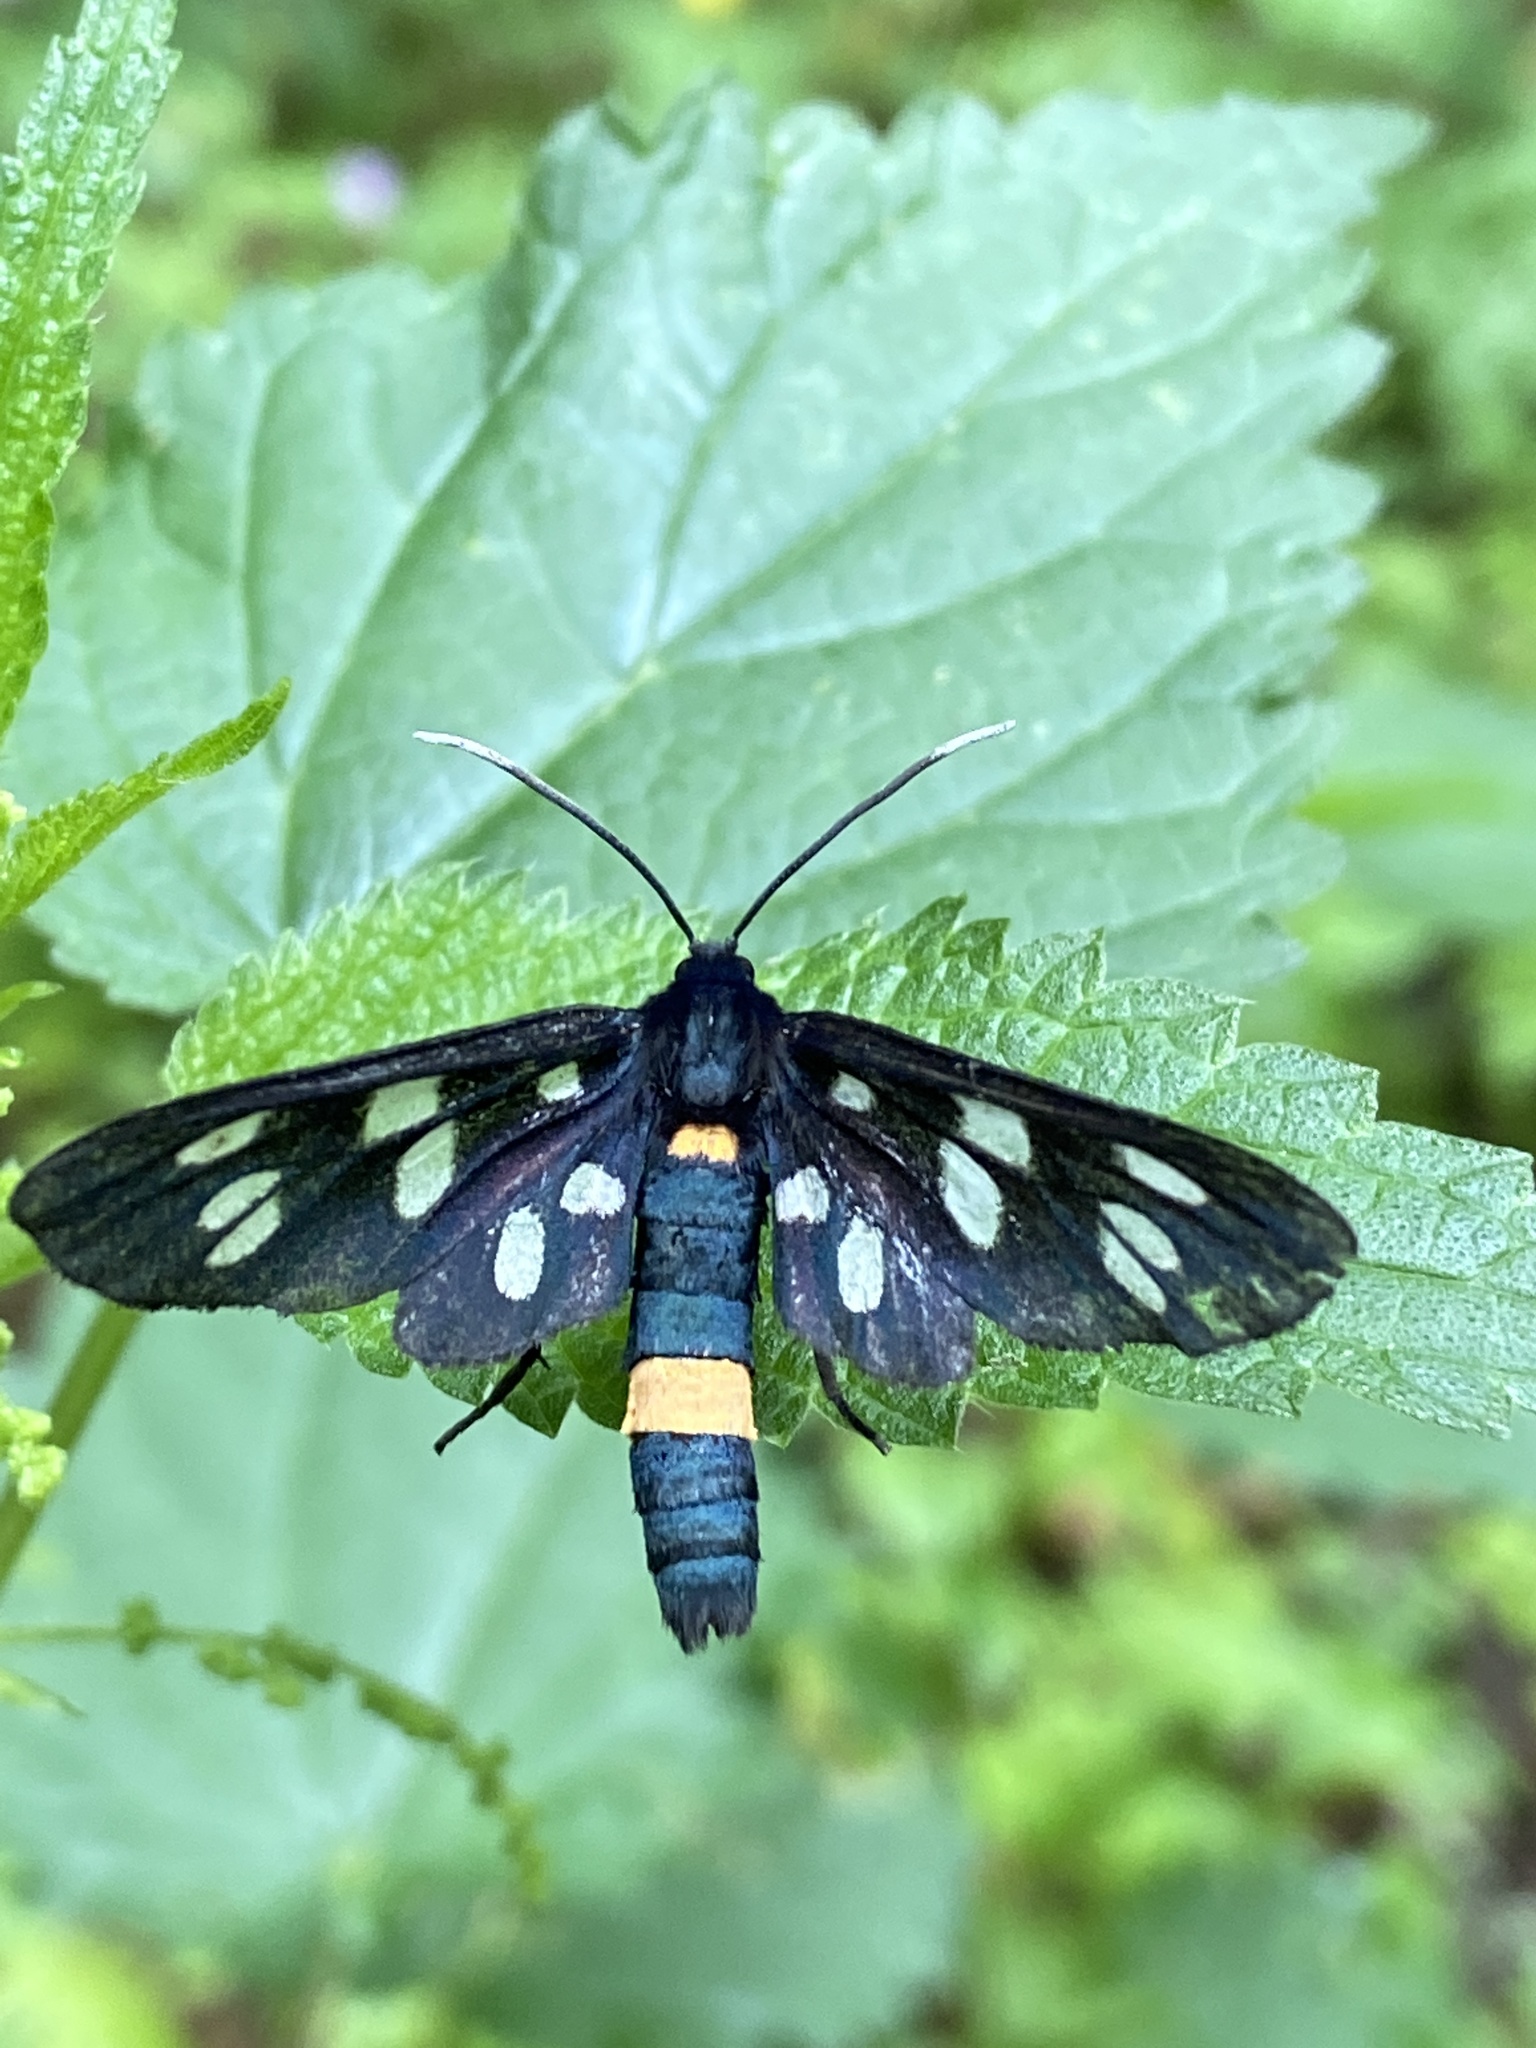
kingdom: Animalia
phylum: Arthropoda
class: Insecta
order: Lepidoptera
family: Erebidae
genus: Amata
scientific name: Amata phegea
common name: Nine-spotted
